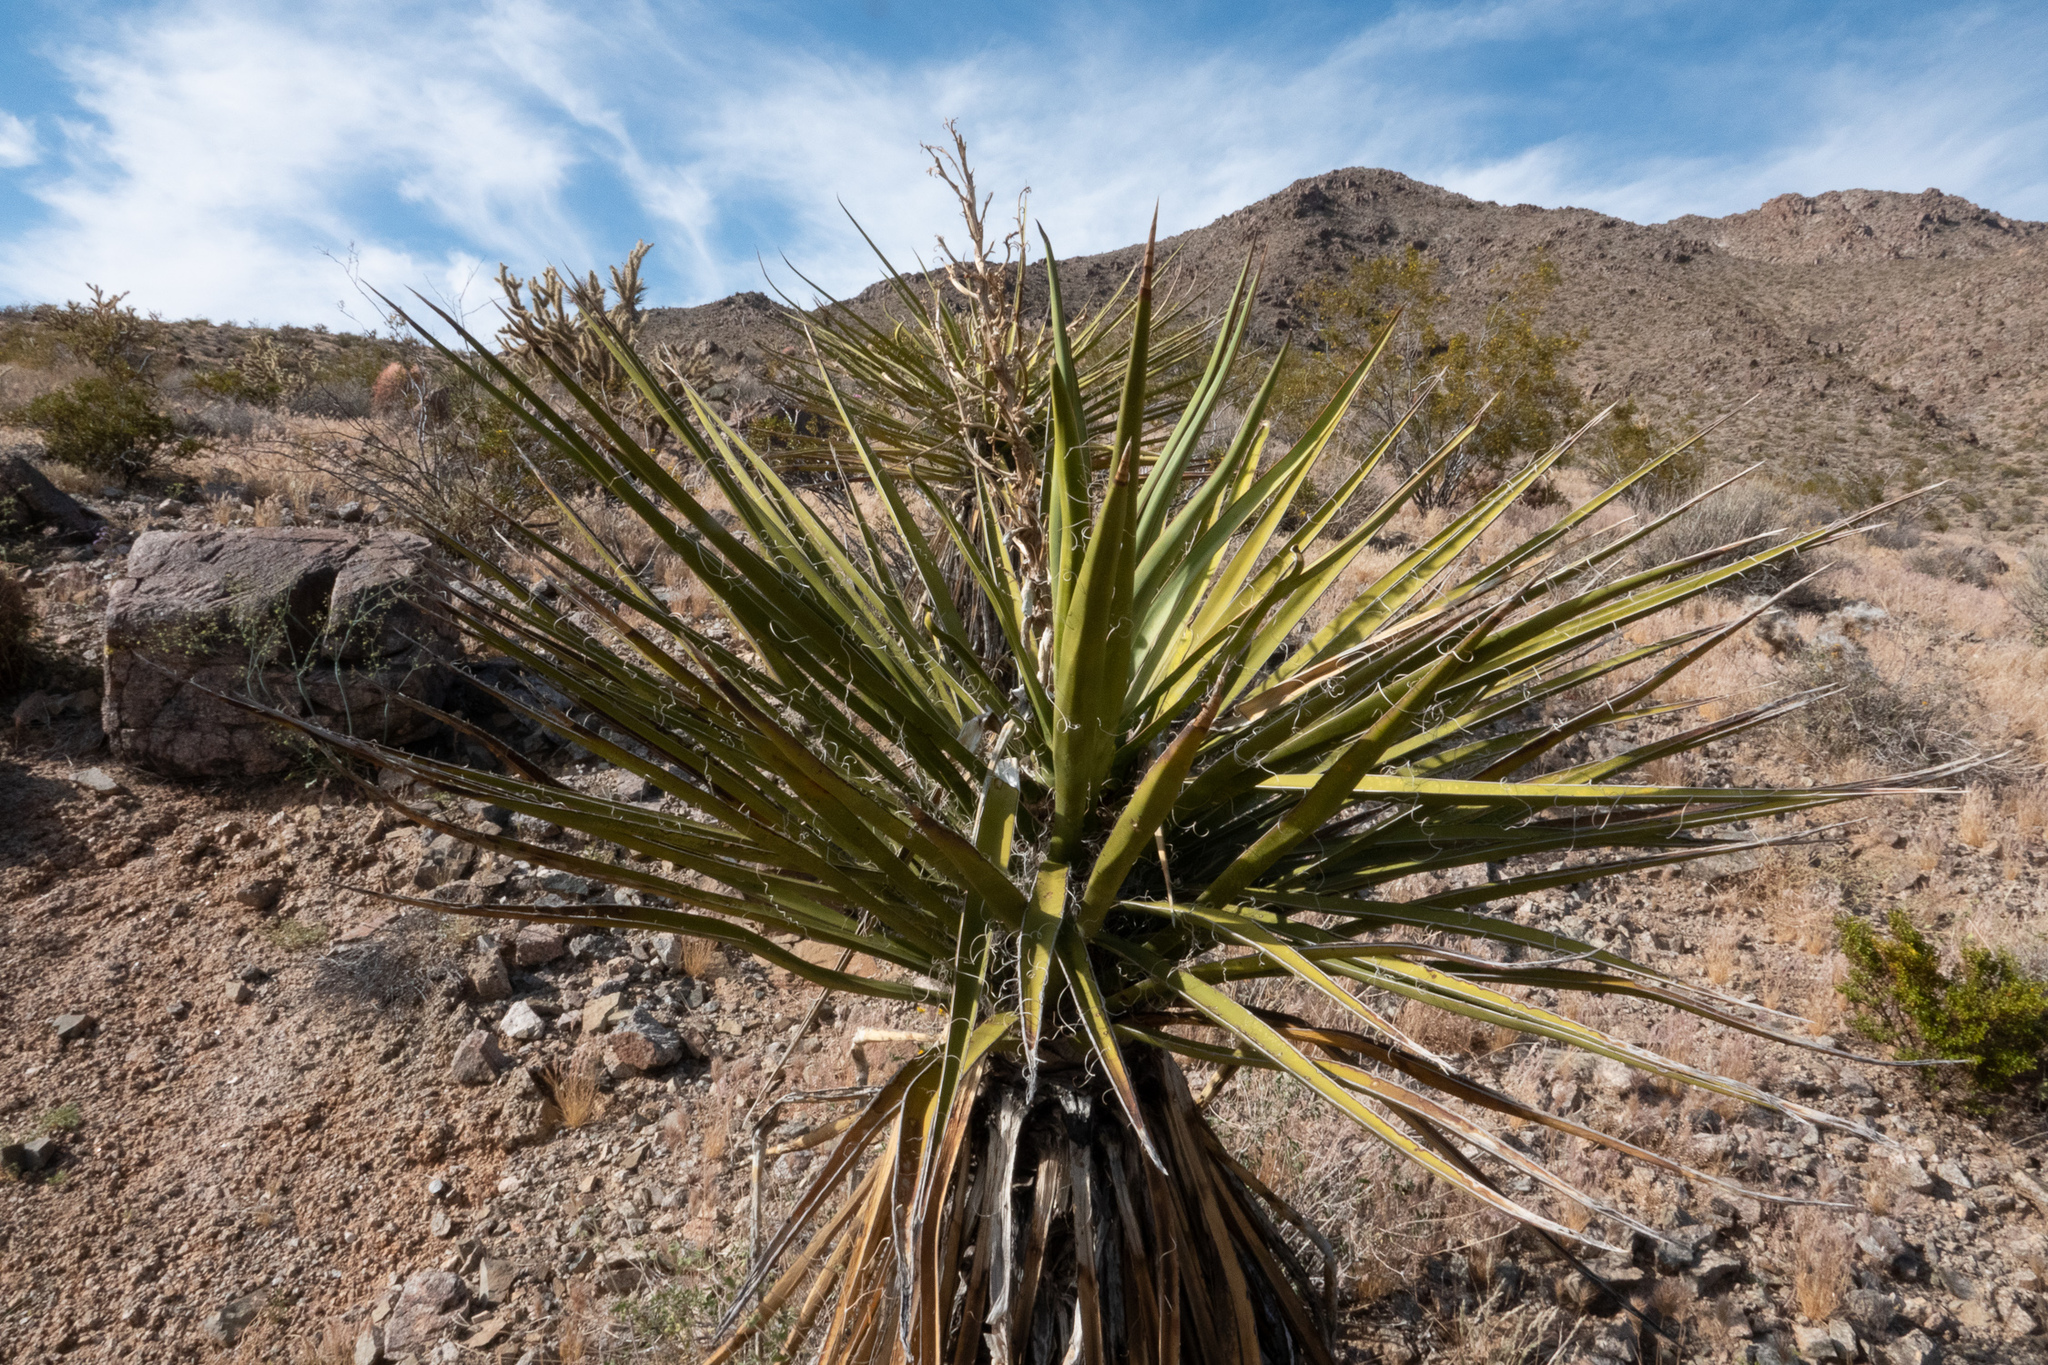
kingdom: Plantae
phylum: Tracheophyta
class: Liliopsida
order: Asparagales
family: Asparagaceae
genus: Yucca
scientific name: Yucca schidigera
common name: Mojave yucca
